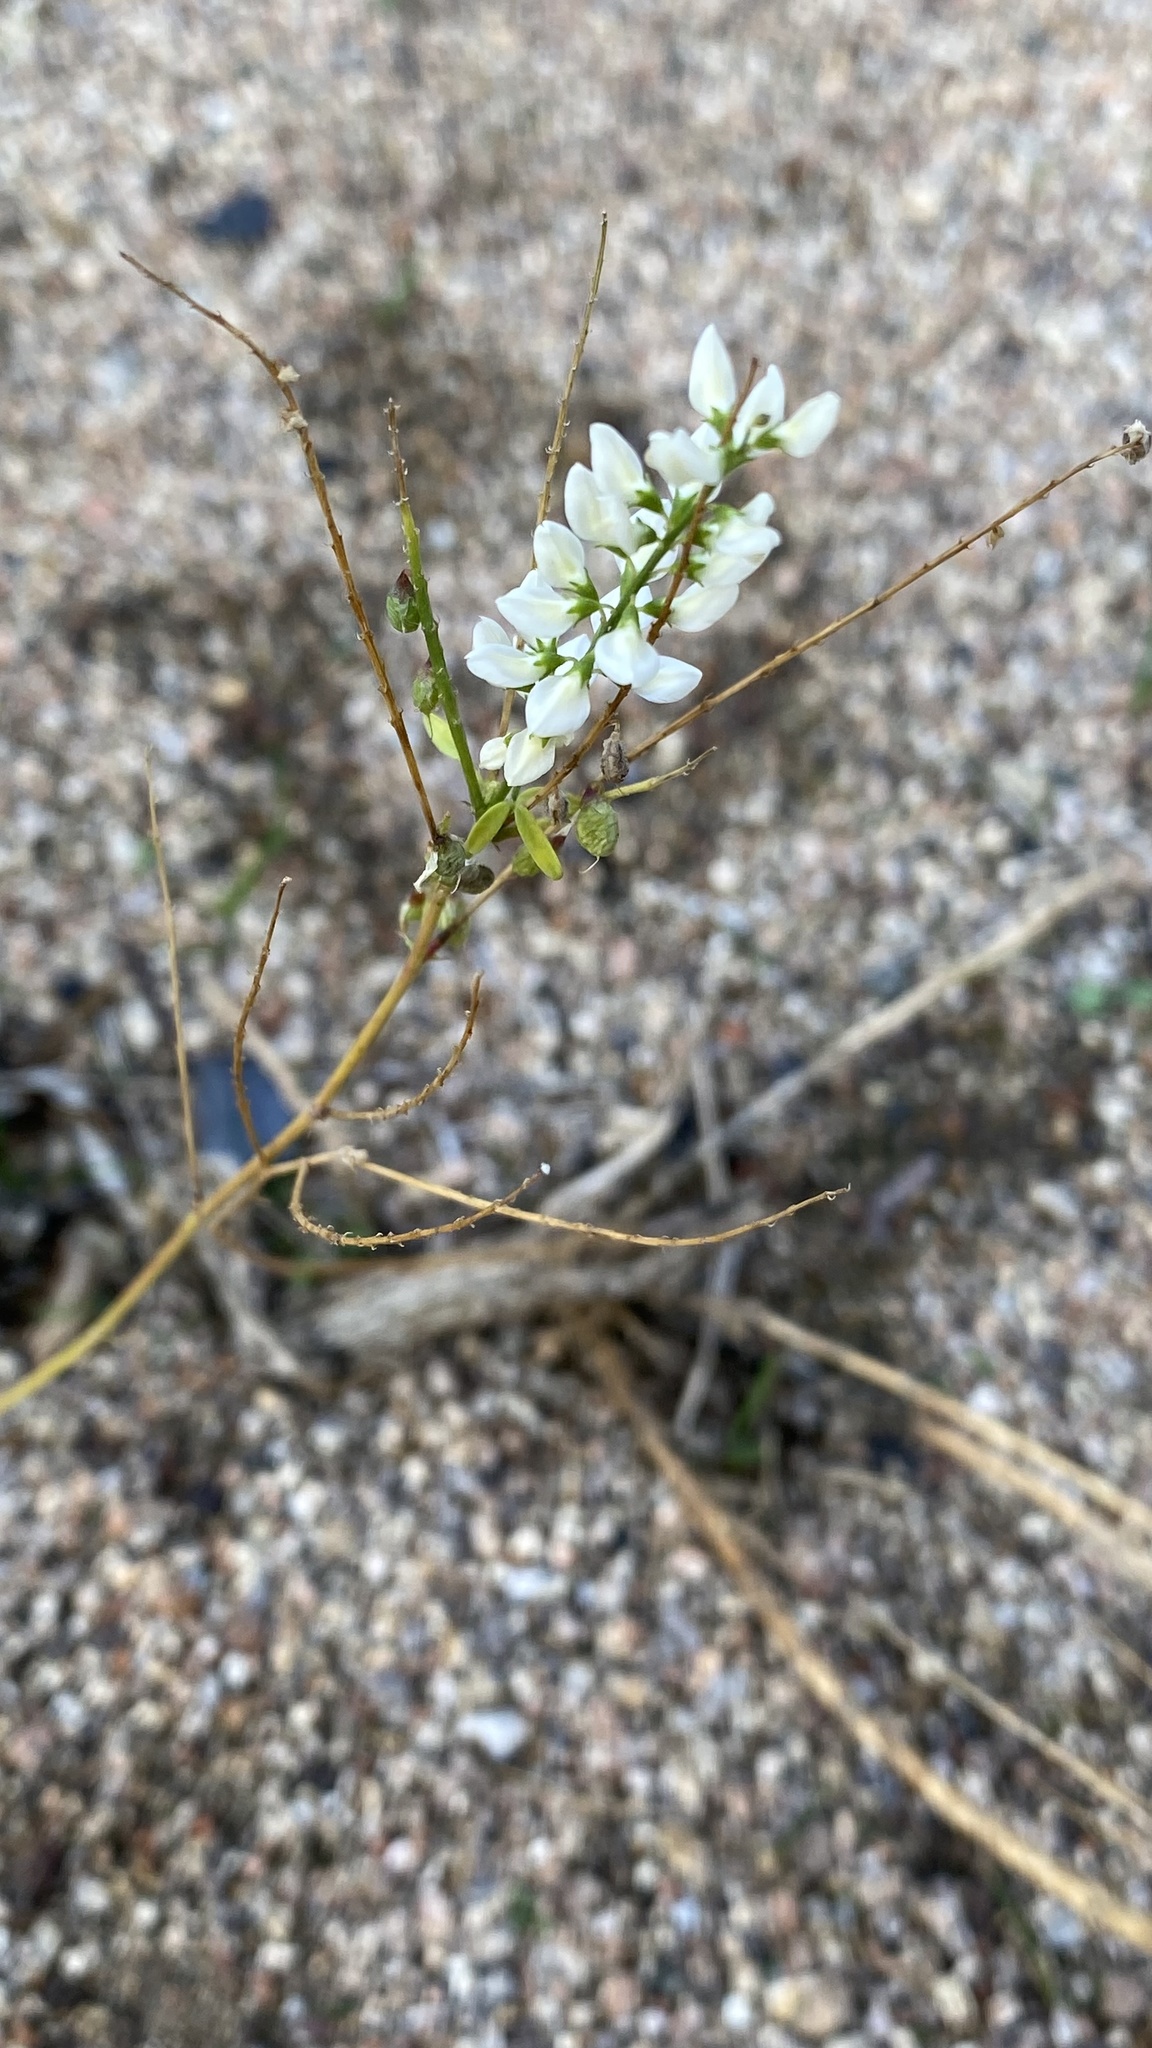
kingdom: Plantae
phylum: Tracheophyta
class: Magnoliopsida
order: Fabales
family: Fabaceae
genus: Melilotus
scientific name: Melilotus albus
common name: White melilot
